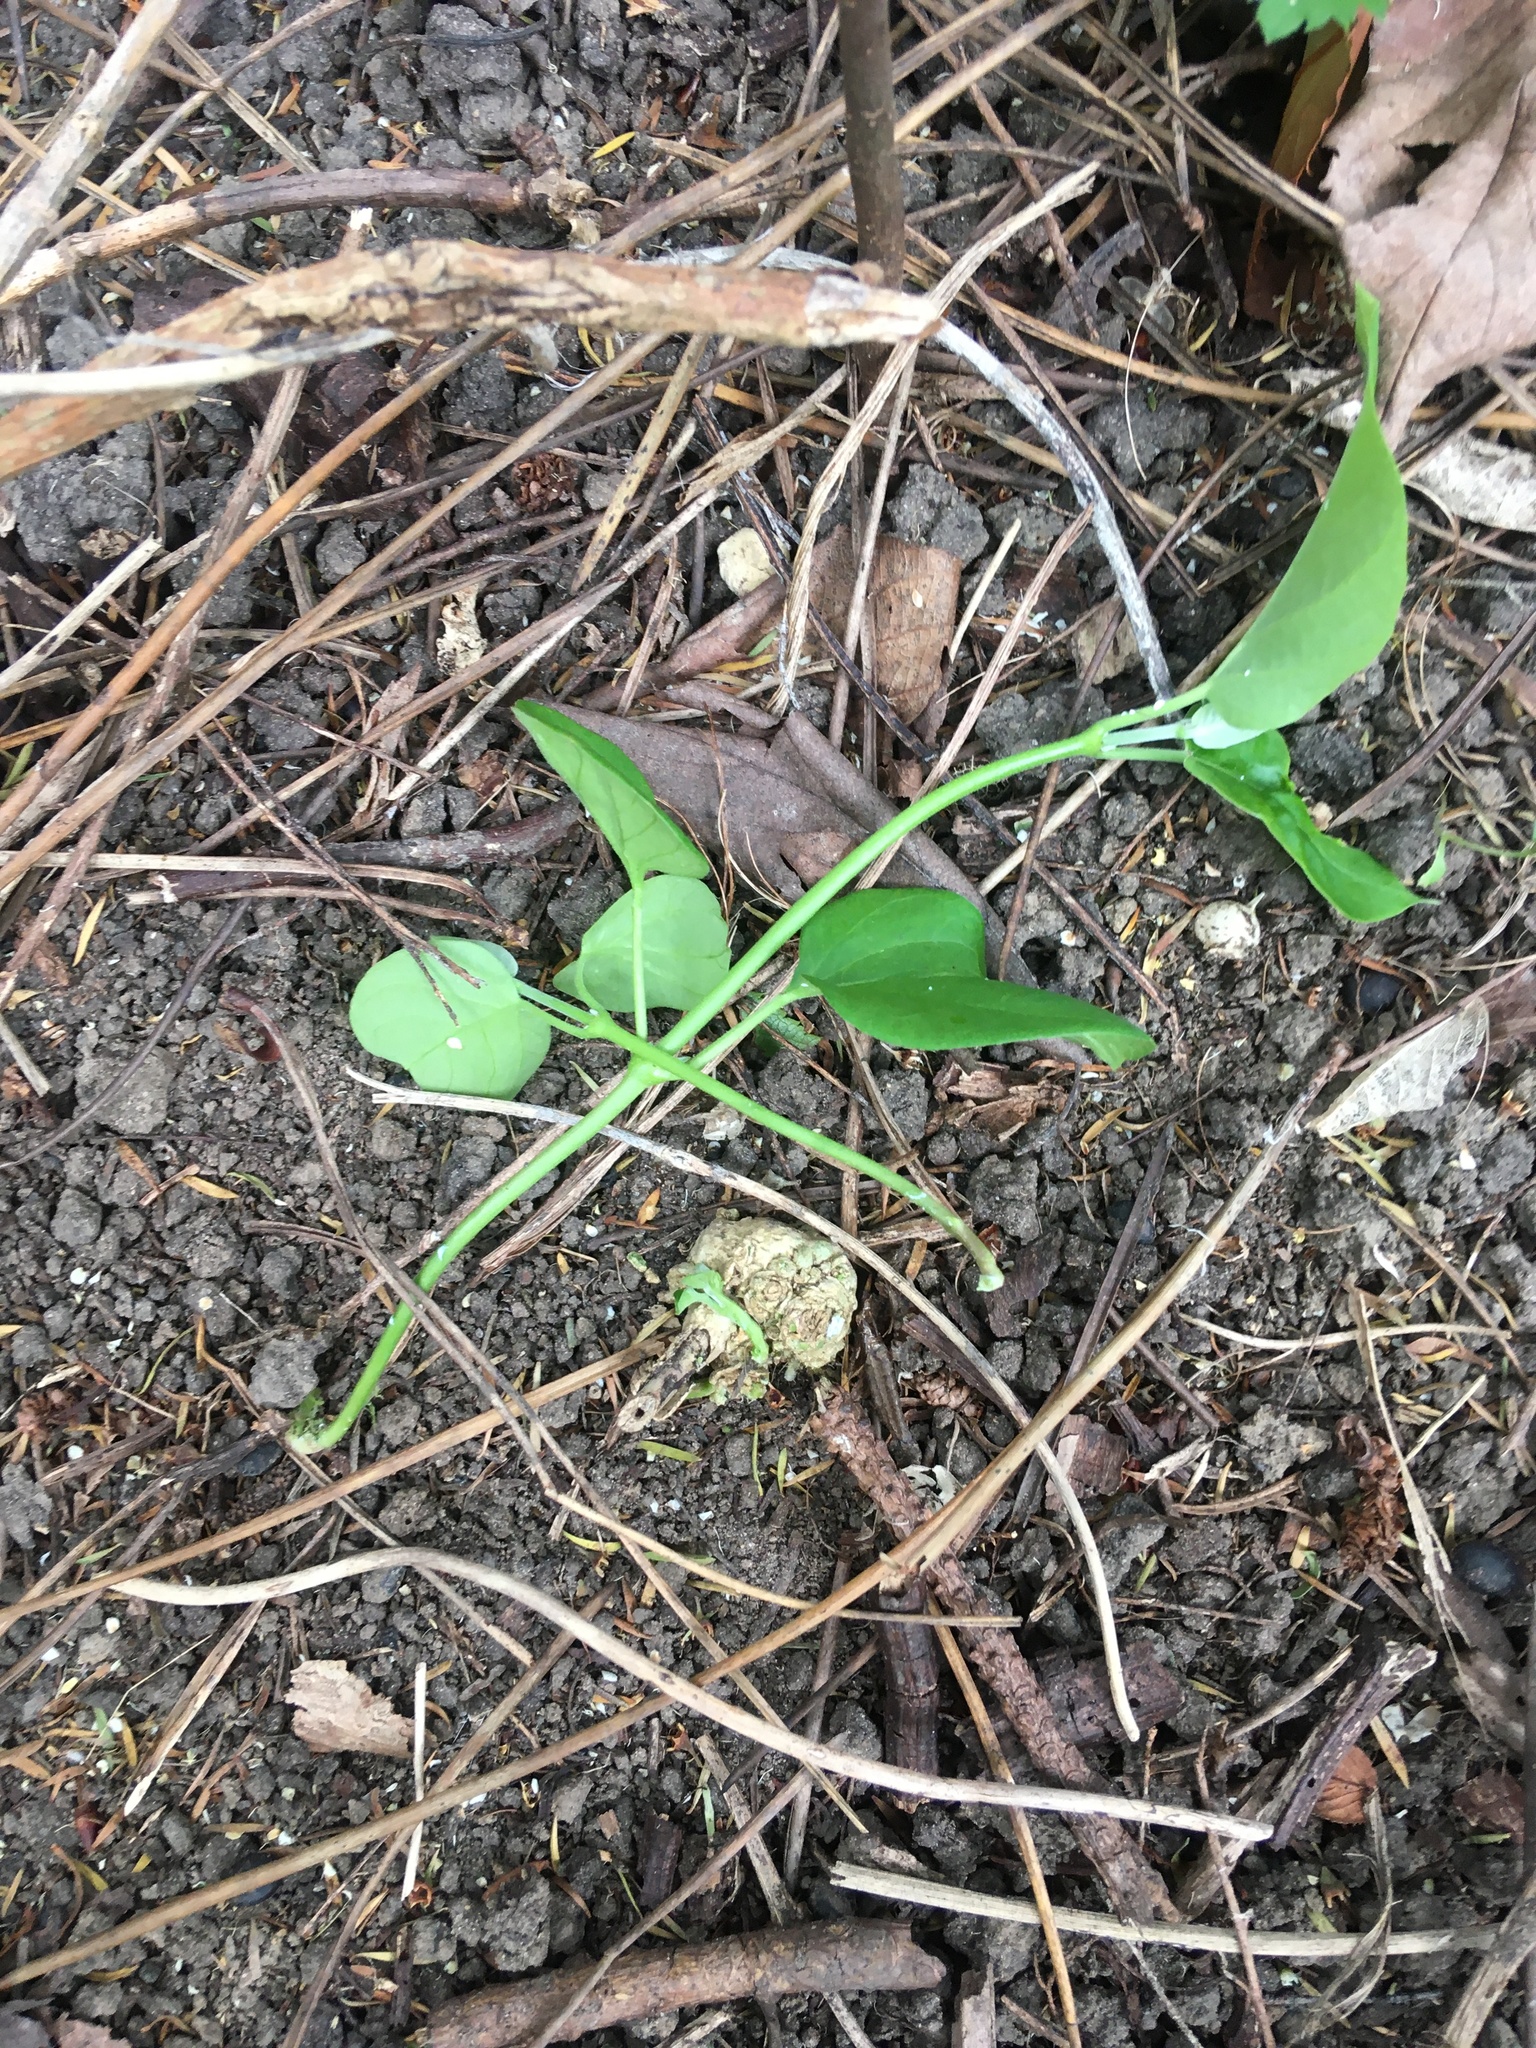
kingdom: Plantae
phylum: Tracheophyta
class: Magnoliopsida
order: Gentianales
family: Apocynaceae
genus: Araujia
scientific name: Araujia sericifera
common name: White bladderflower
